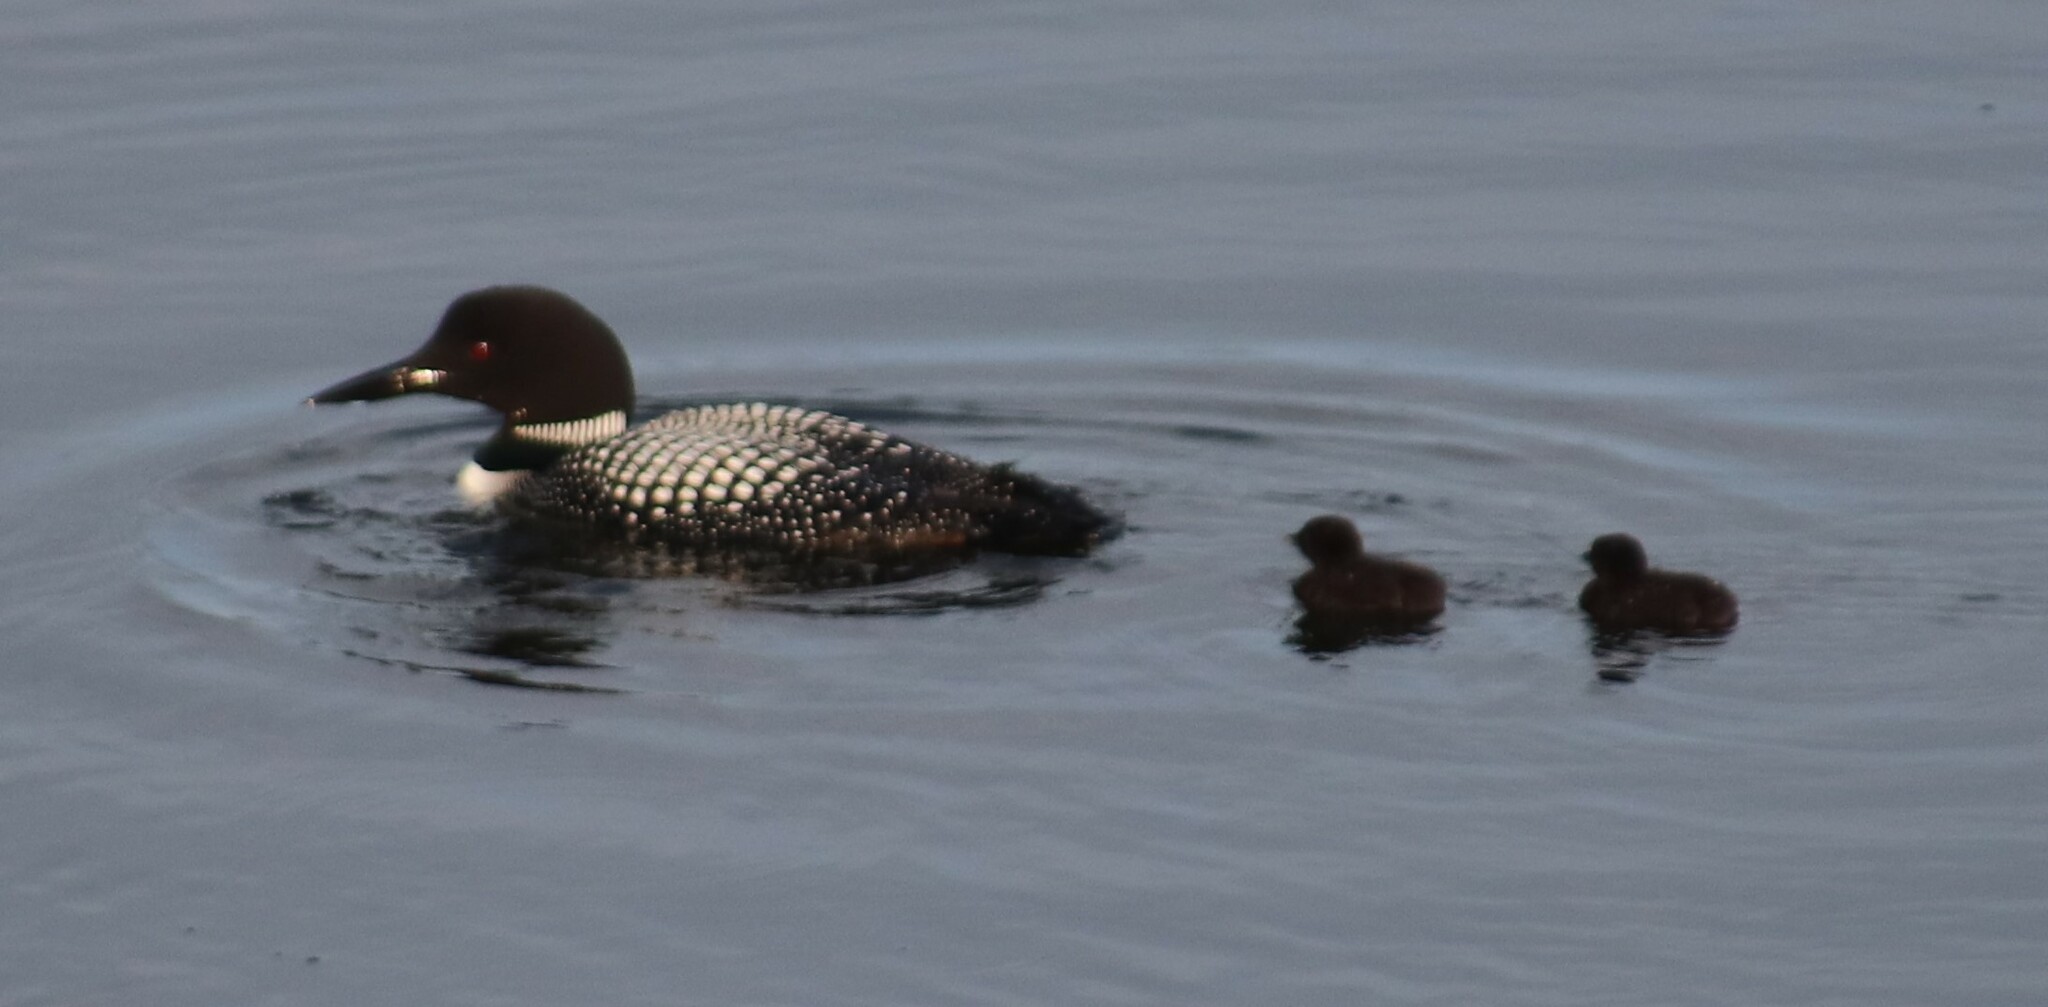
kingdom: Animalia
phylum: Chordata
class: Aves
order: Gaviiformes
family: Gaviidae
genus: Gavia
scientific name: Gavia immer
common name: Common loon
